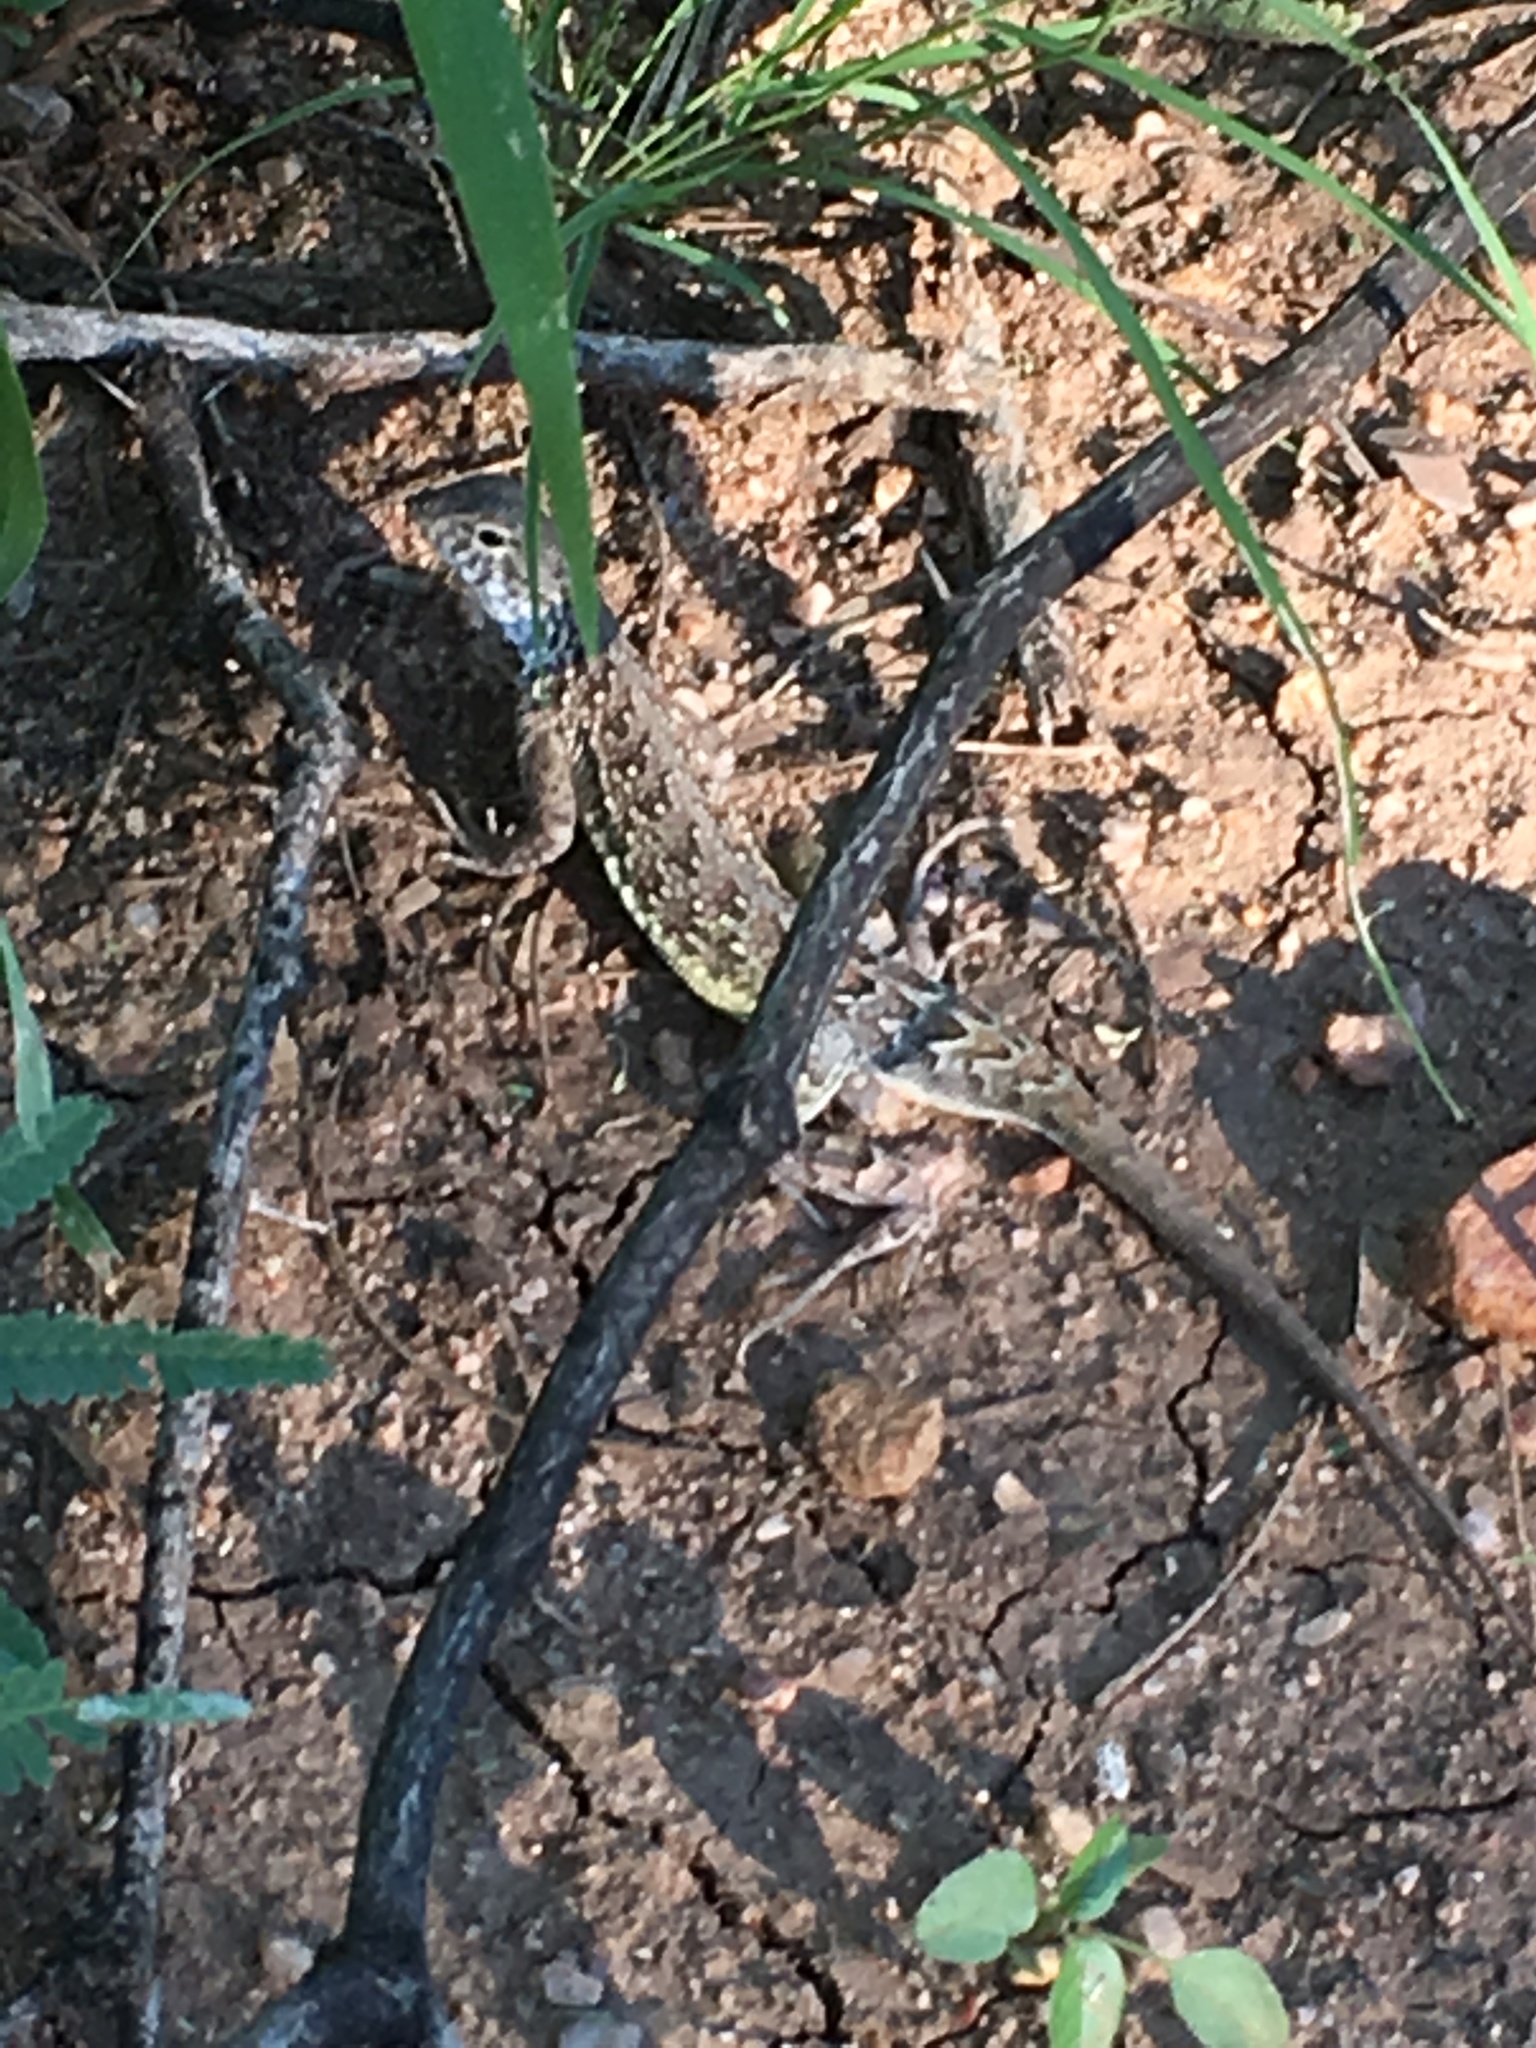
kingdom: Animalia
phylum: Chordata
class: Squamata
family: Phrynosomatidae
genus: Holbrookia
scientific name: Holbrookia elegans
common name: Elegant earless lizard
